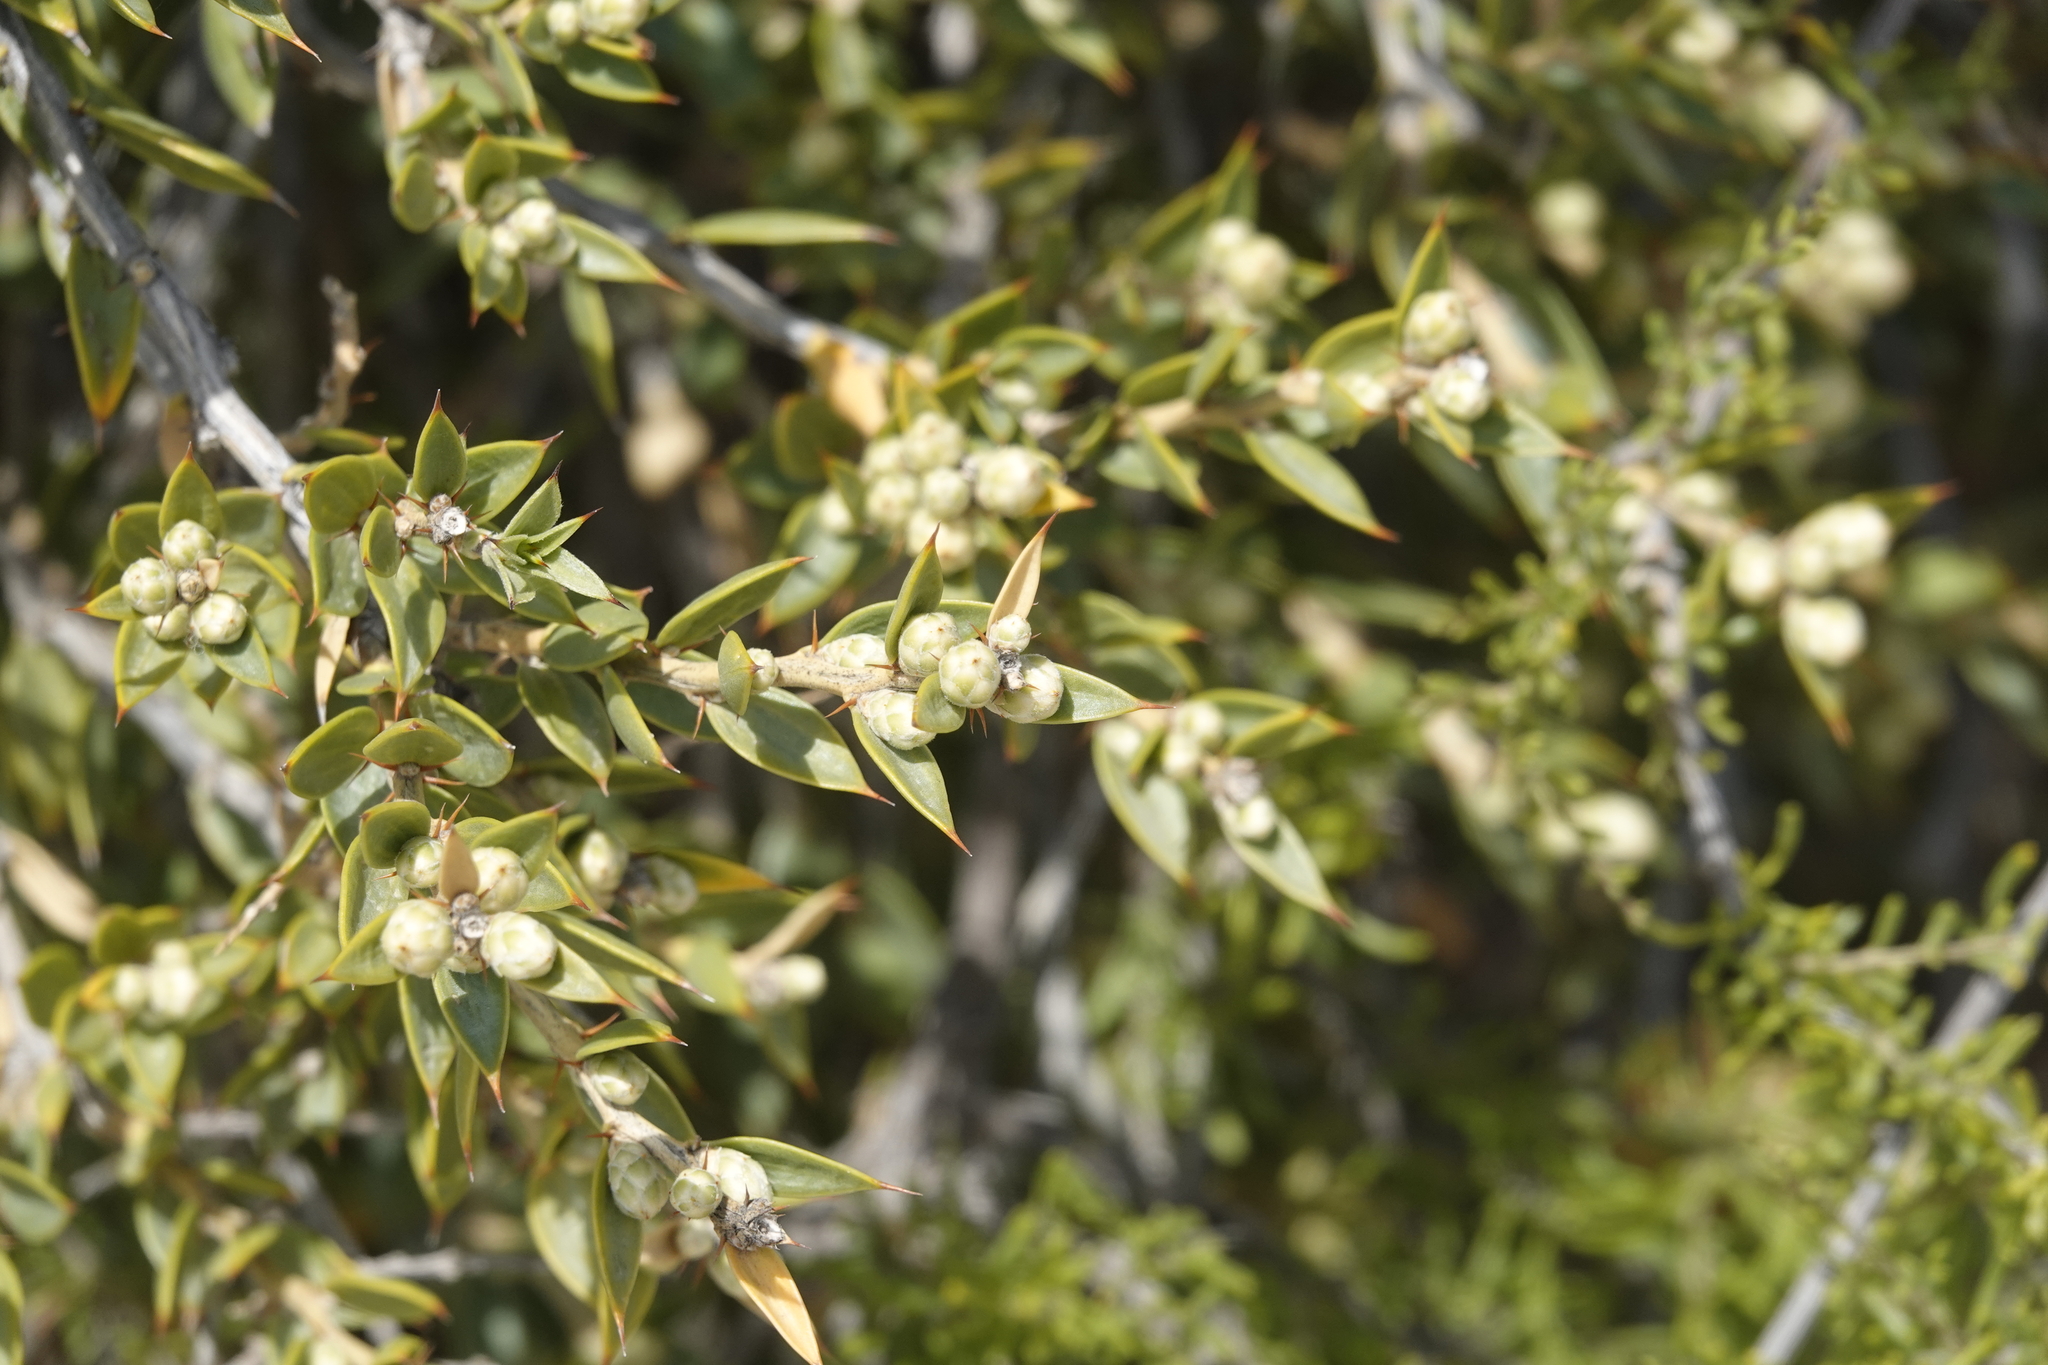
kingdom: Plantae
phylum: Tracheophyta
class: Magnoliopsida
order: Asterales
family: Asteraceae
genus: Chuquiraga
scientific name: Chuquiraga avellanedae
